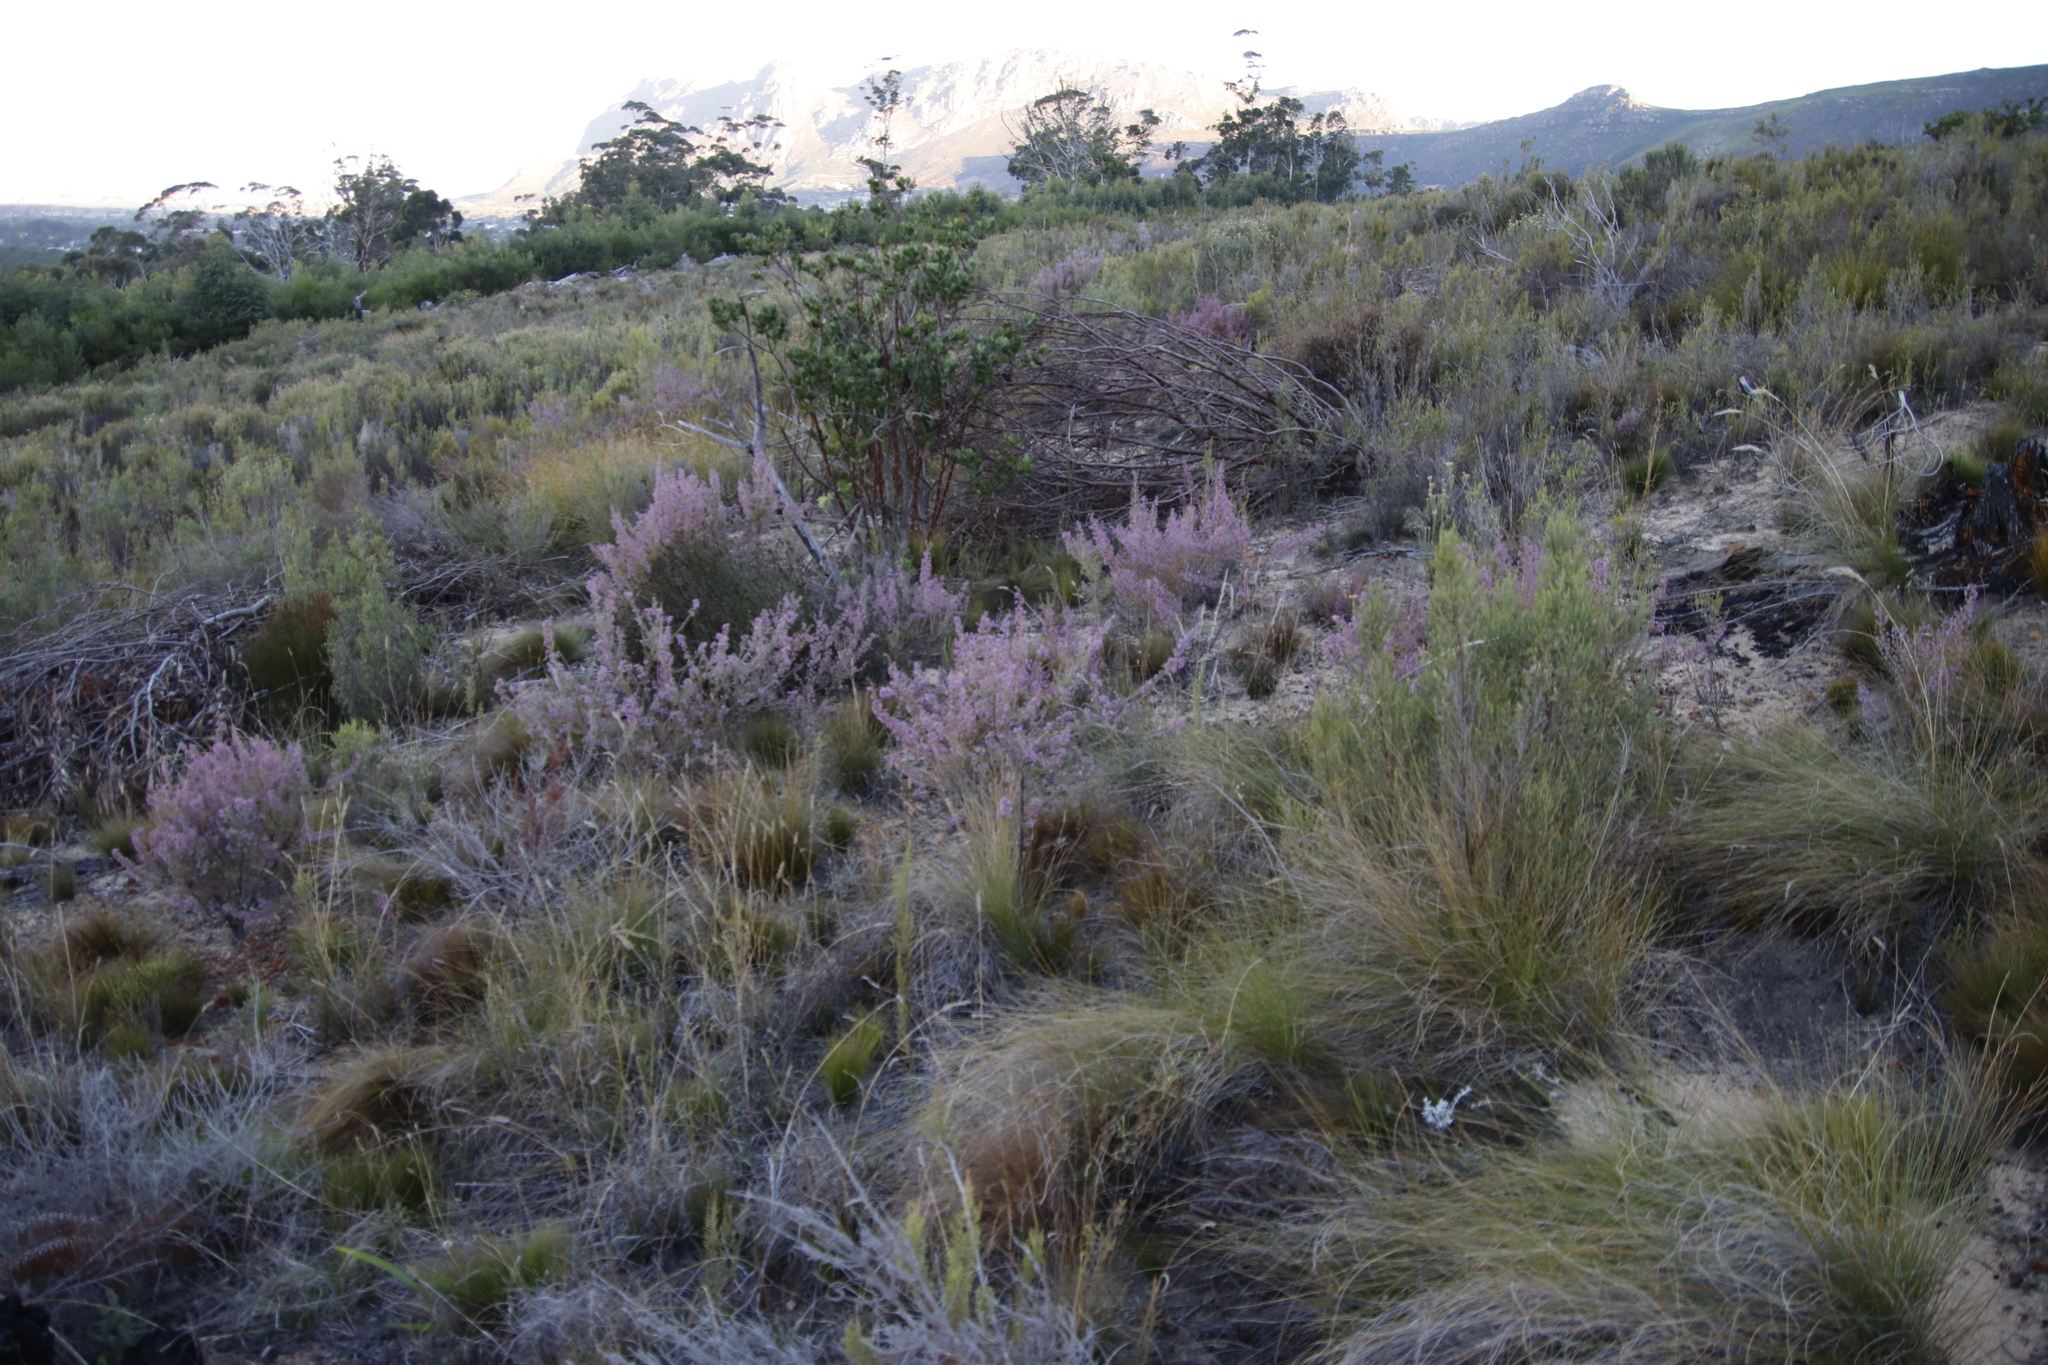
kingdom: Plantae
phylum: Tracheophyta
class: Magnoliopsida
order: Ericales
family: Ericaceae
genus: Erica
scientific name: Erica hirtiflora
